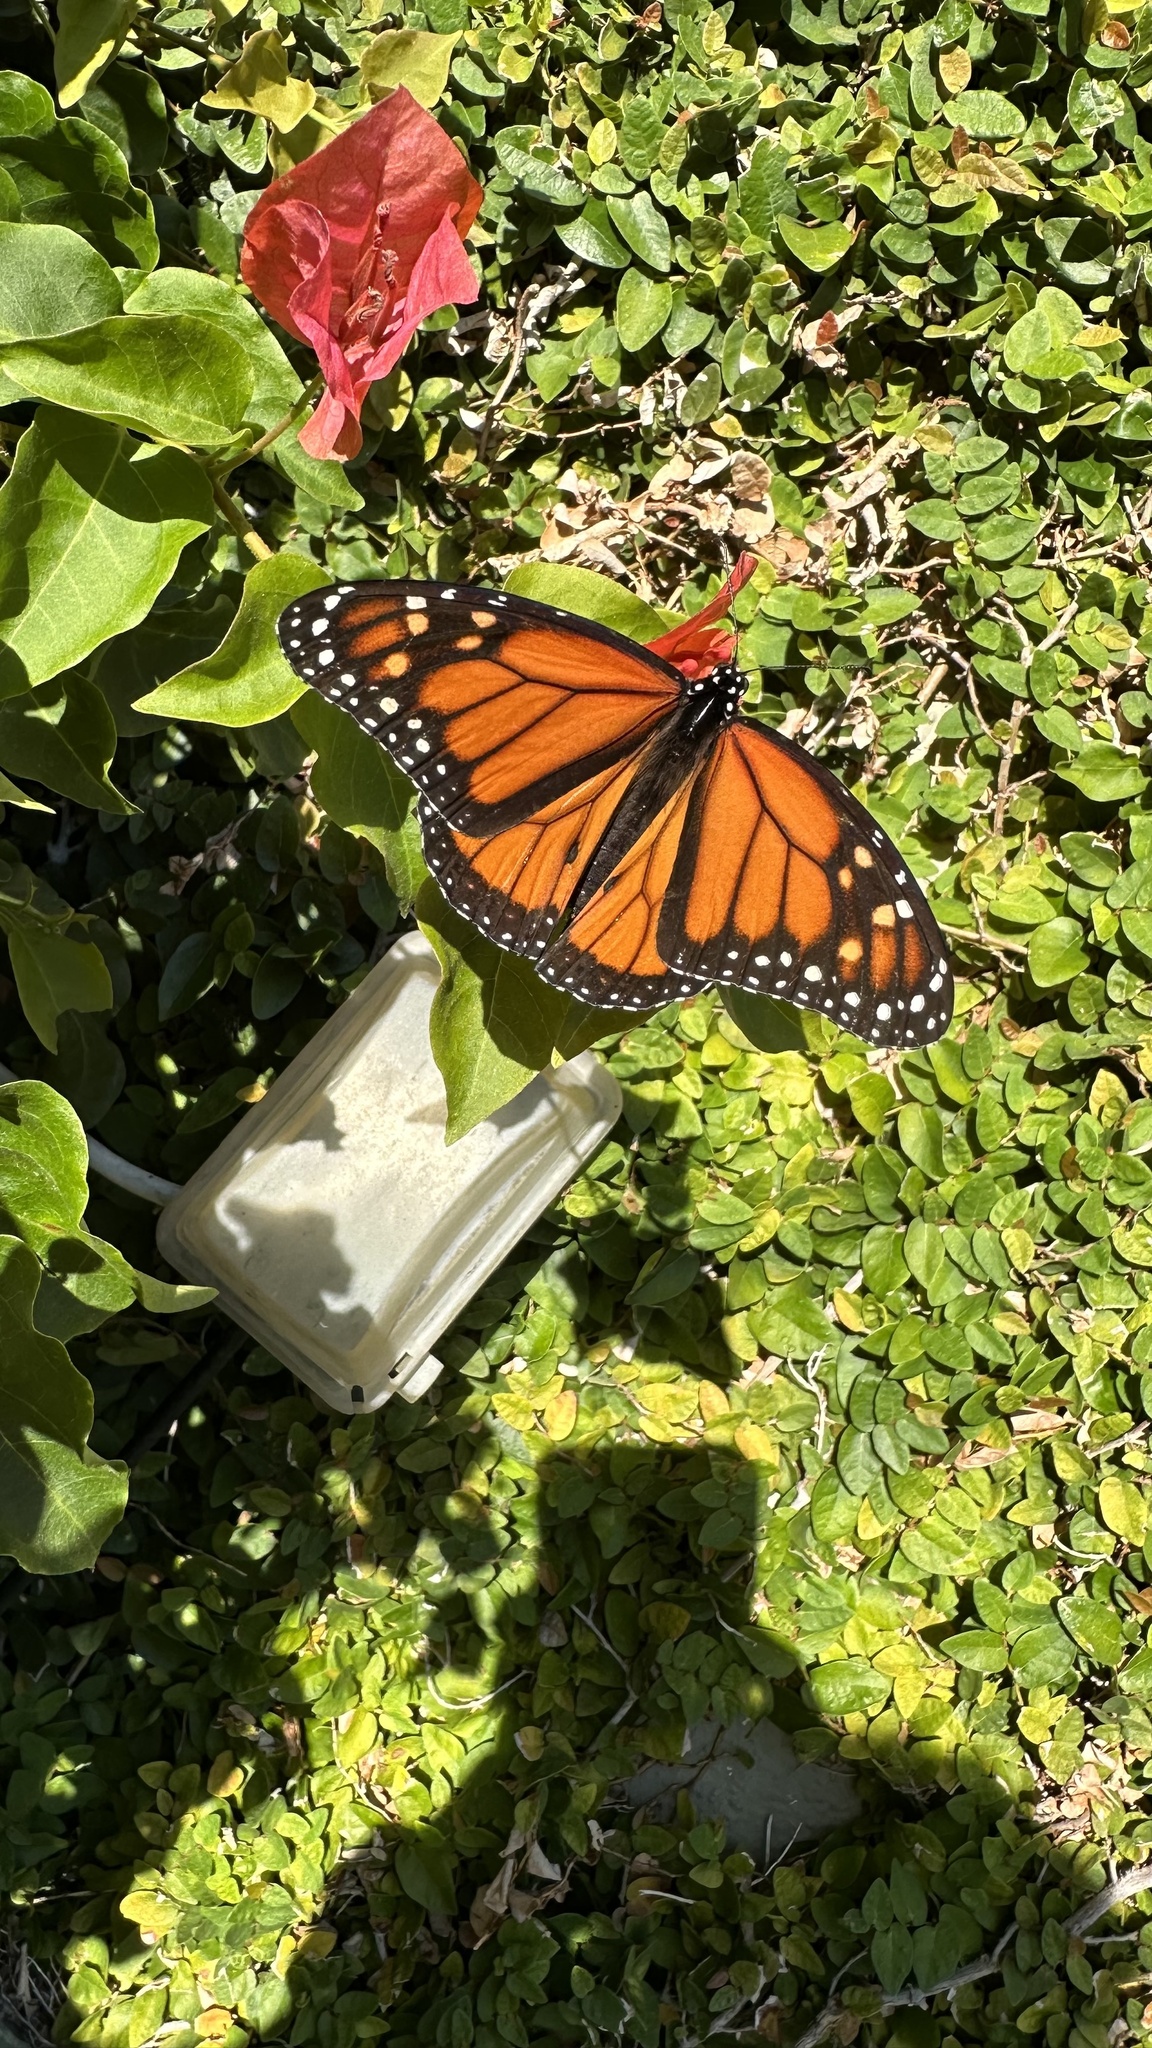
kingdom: Animalia
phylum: Arthropoda
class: Insecta
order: Lepidoptera
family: Nymphalidae
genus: Danaus
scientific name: Danaus plexippus
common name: Monarch
